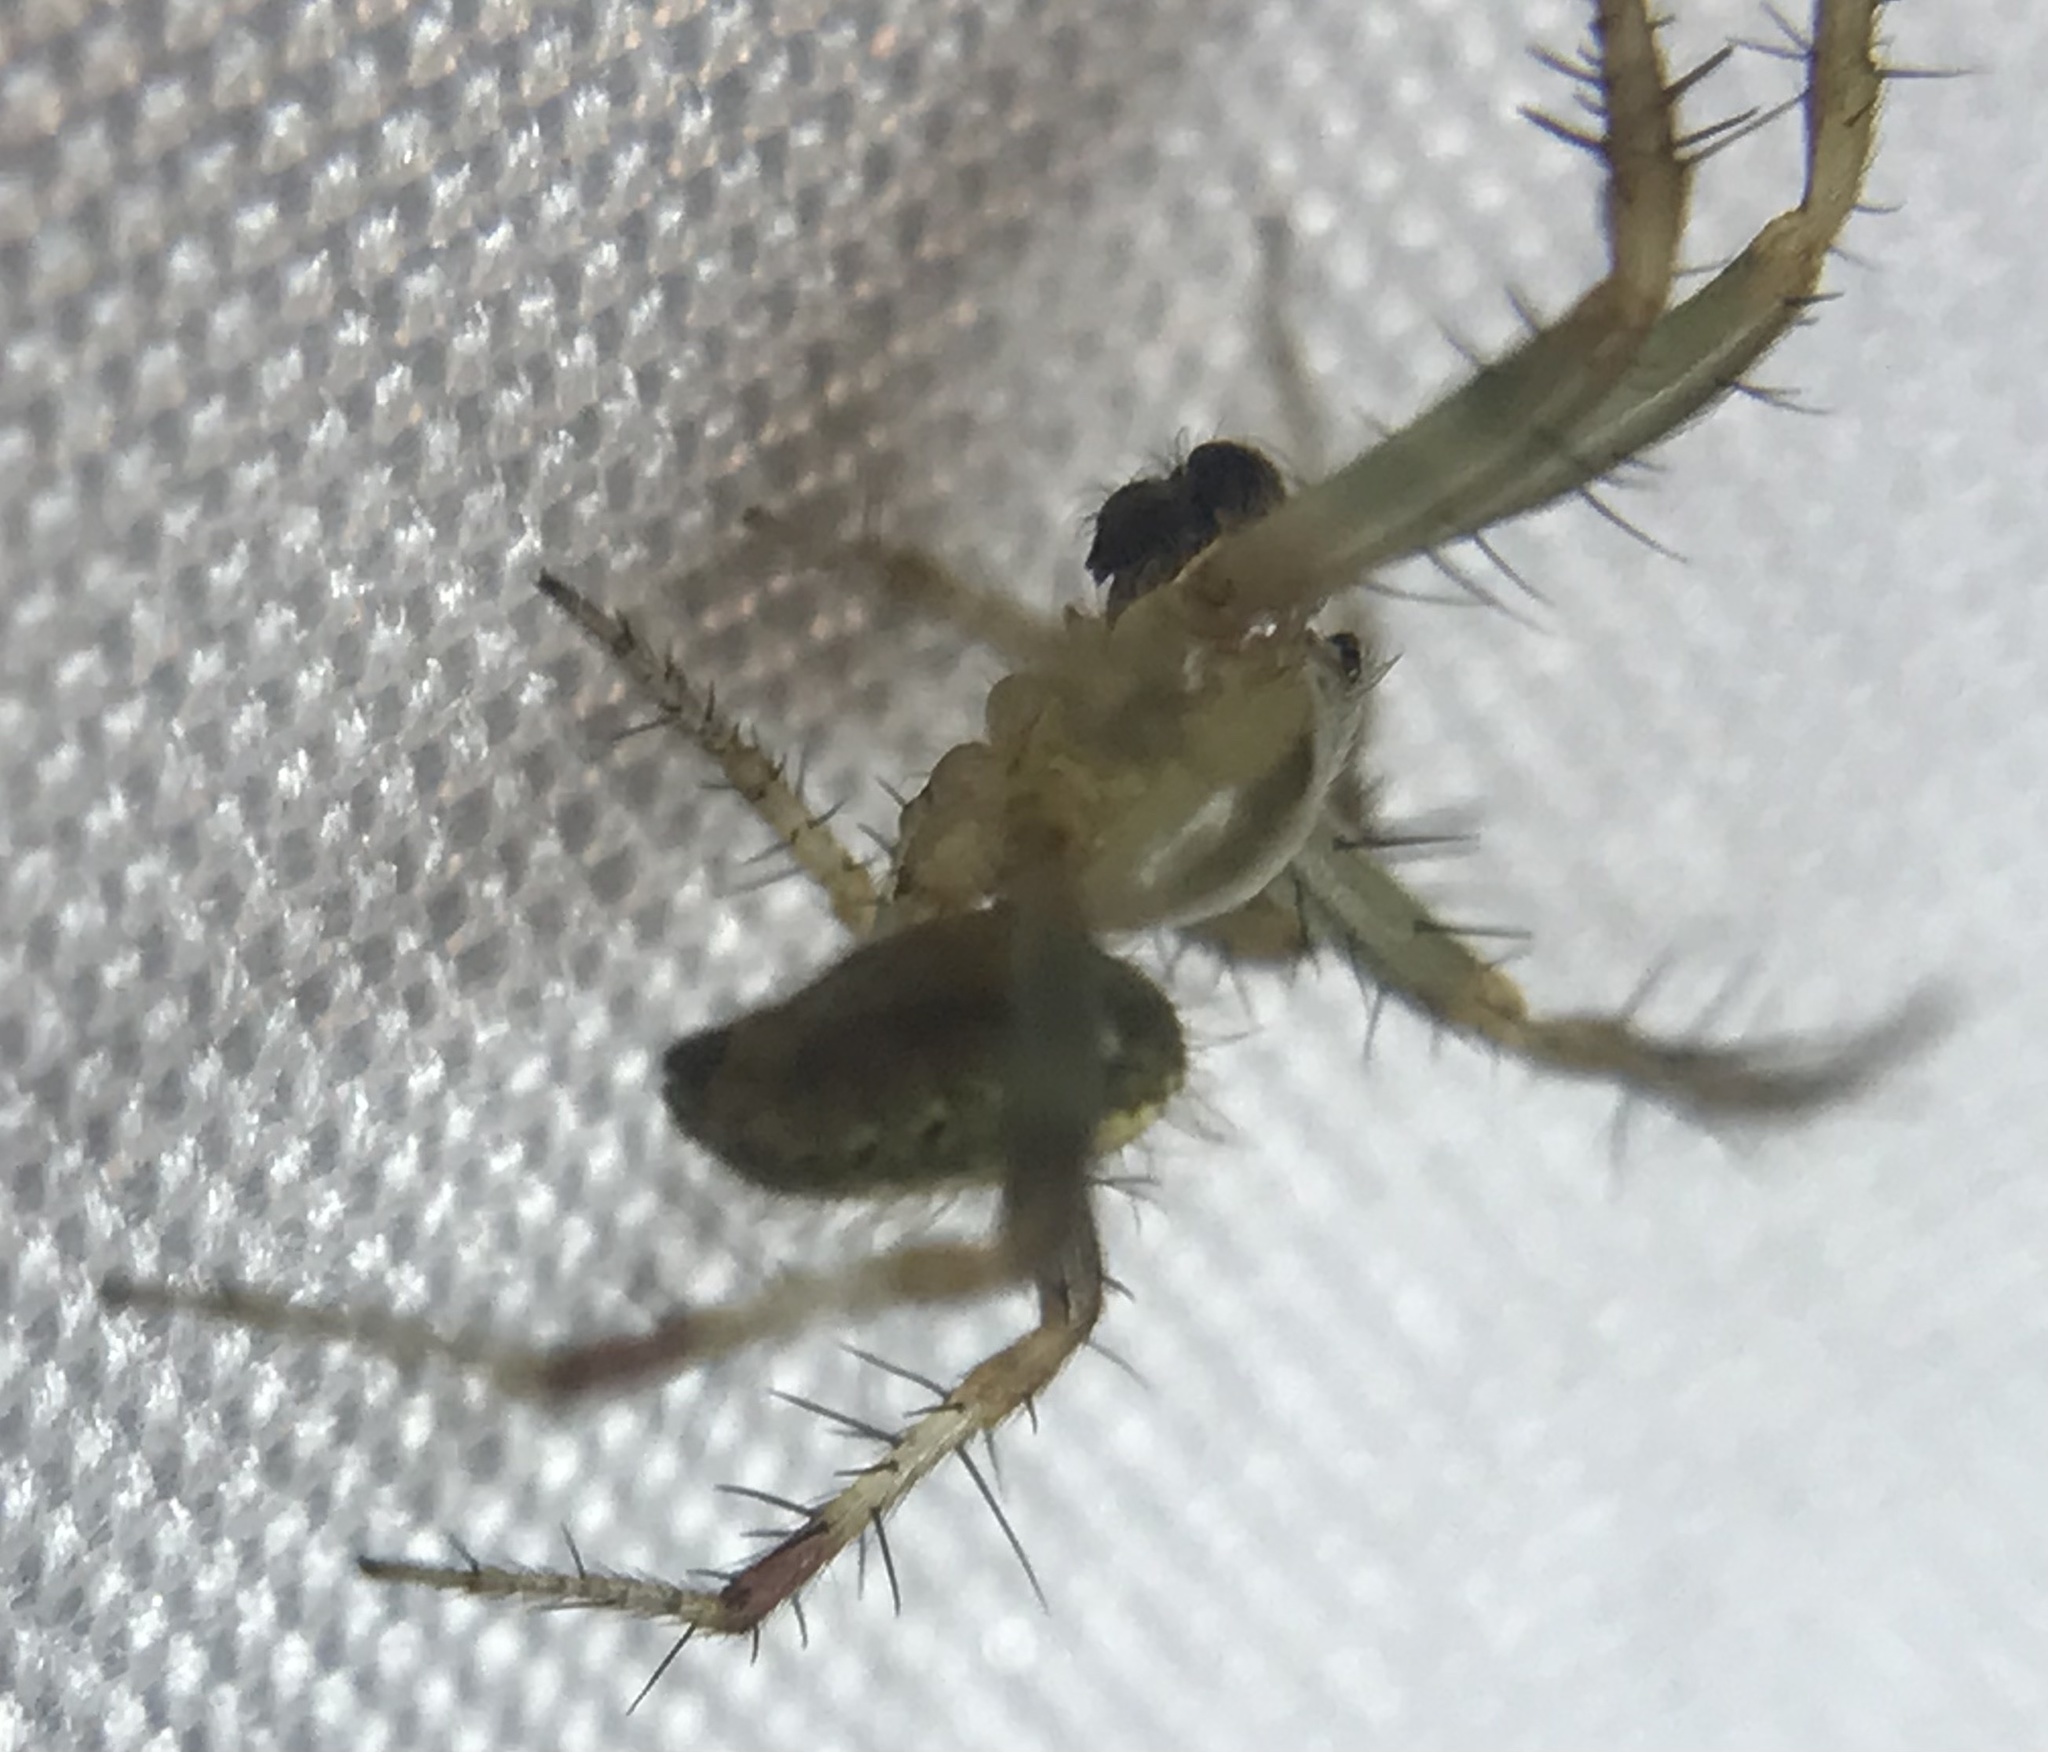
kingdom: Animalia
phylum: Arthropoda
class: Arachnida
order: Araneae
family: Araneidae
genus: Neoscona
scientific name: Neoscona arabesca
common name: Orb weavers
